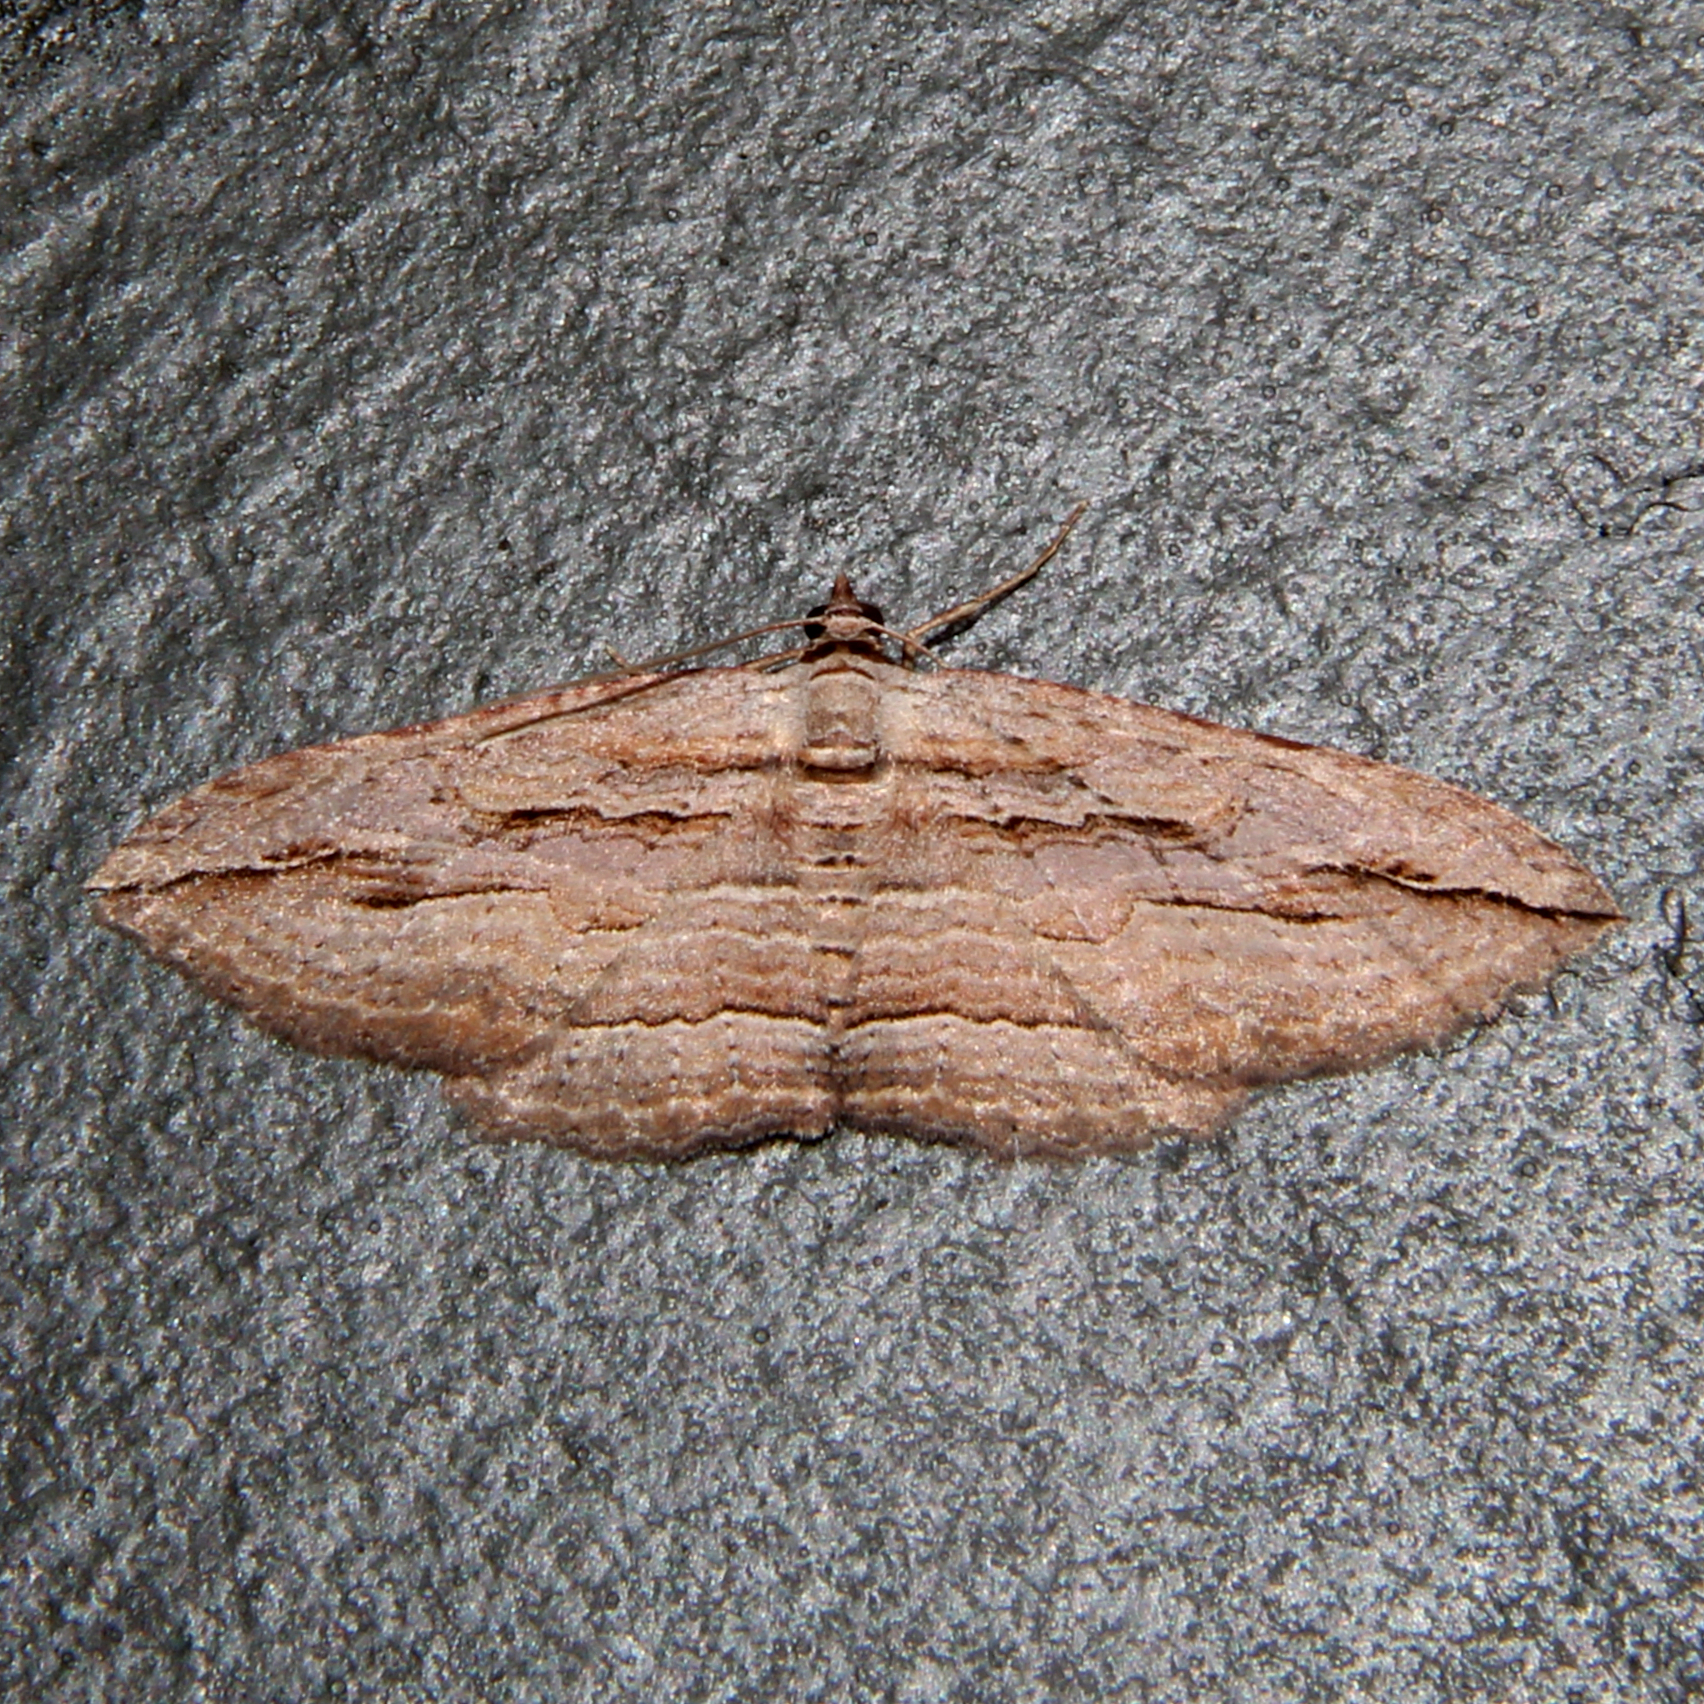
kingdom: Animalia
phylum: Arthropoda
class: Insecta
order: Lepidoptera
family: Geometridae
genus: Austrocidaria
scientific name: Austrocidaria gobiata
